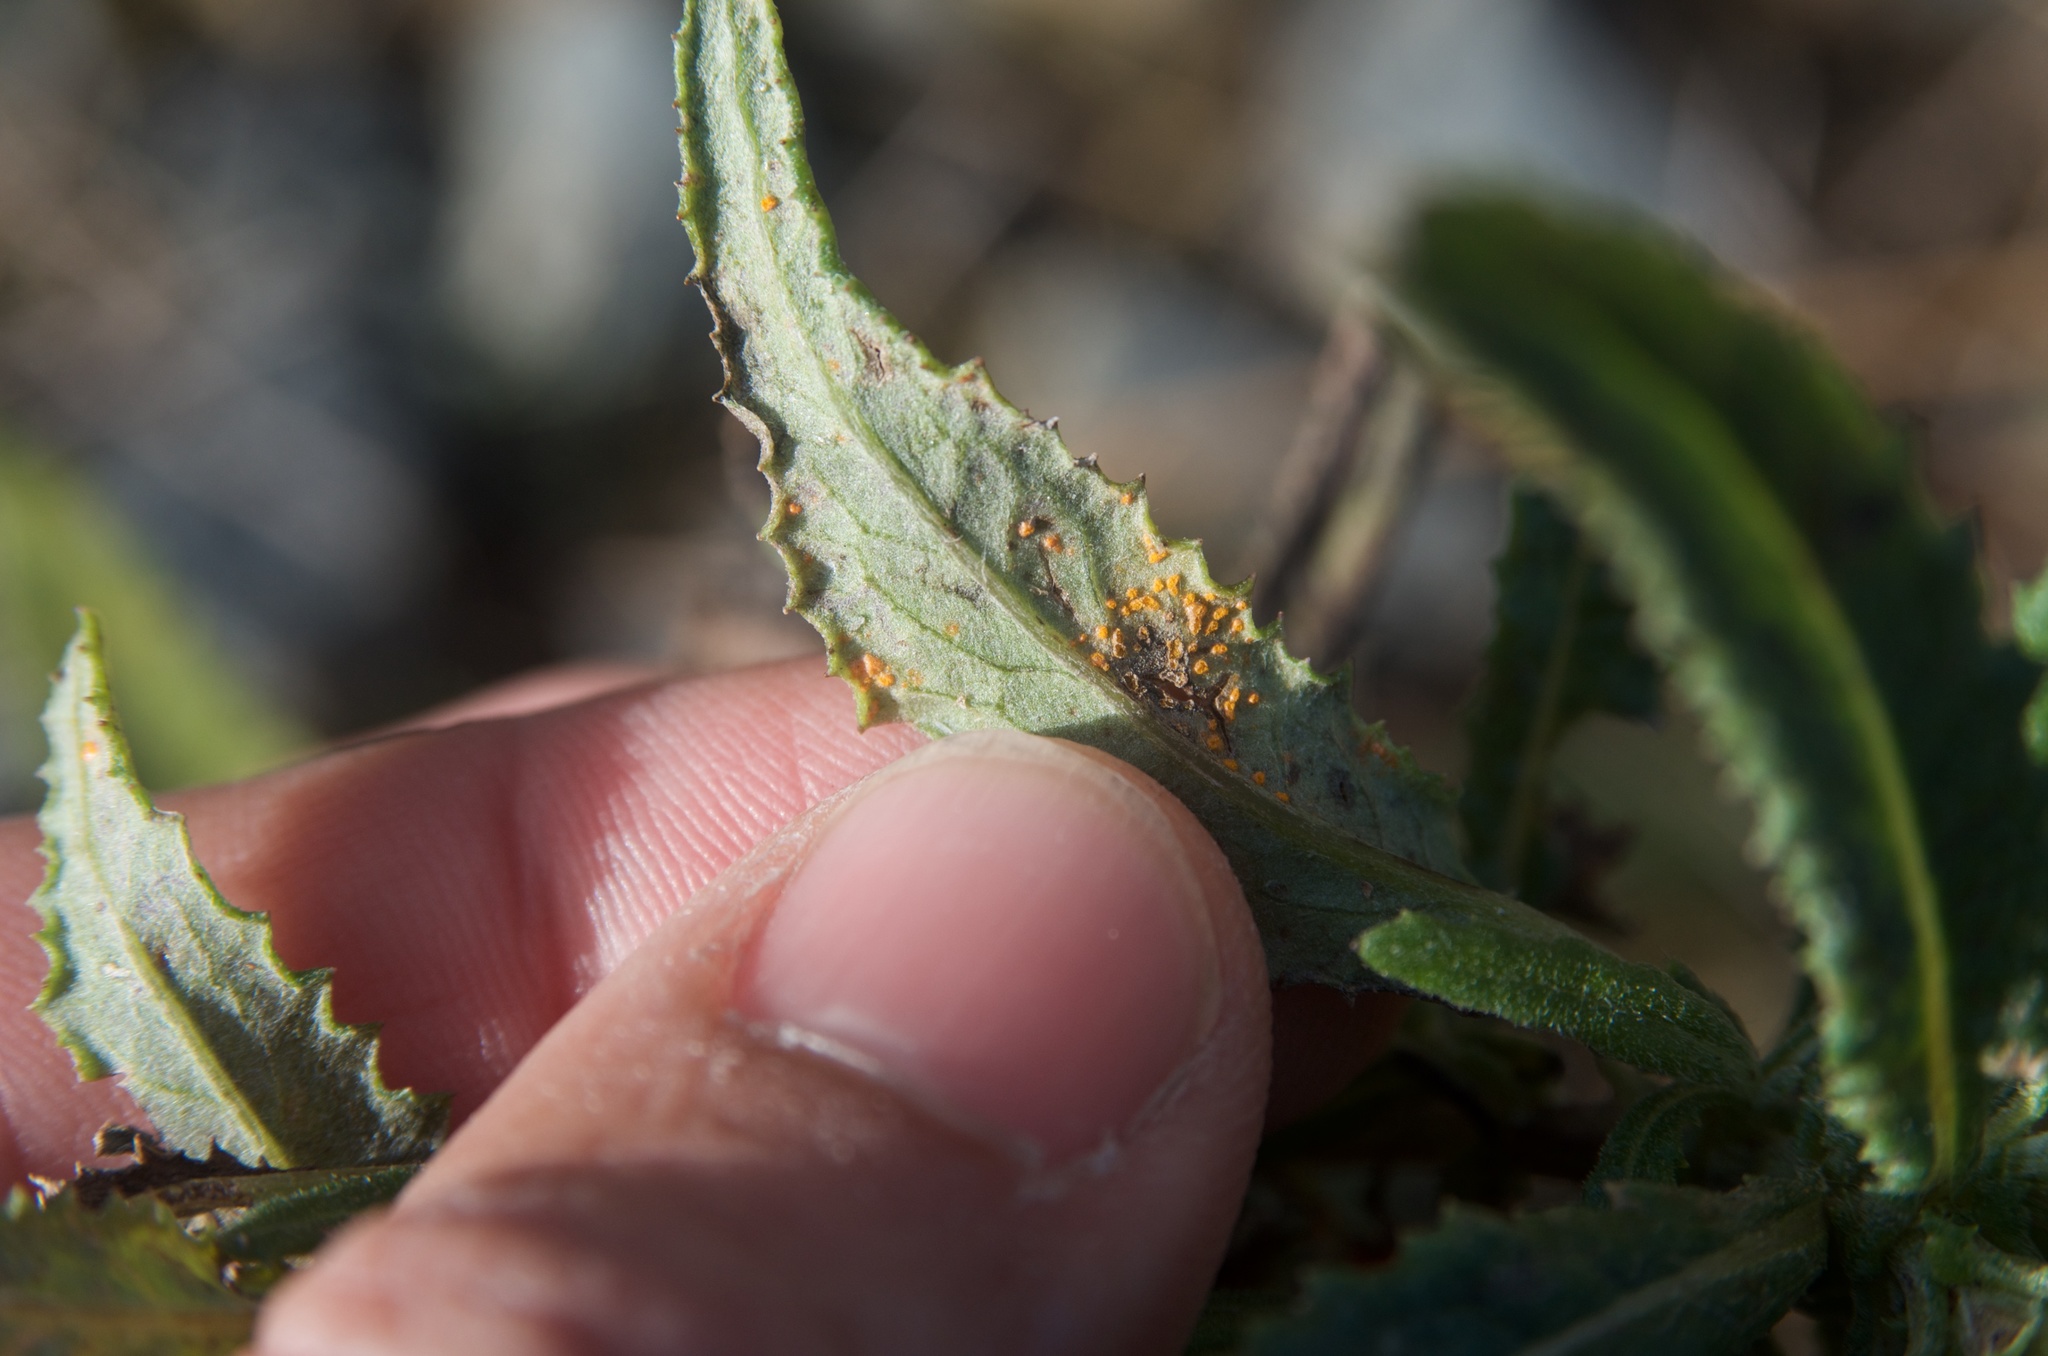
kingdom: Fungi
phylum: Basidiomycota
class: Pucciniomycetes
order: Pucciniales
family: Coleosporiaceae
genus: Coleosporium
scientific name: Coleosporium tussilaginis
